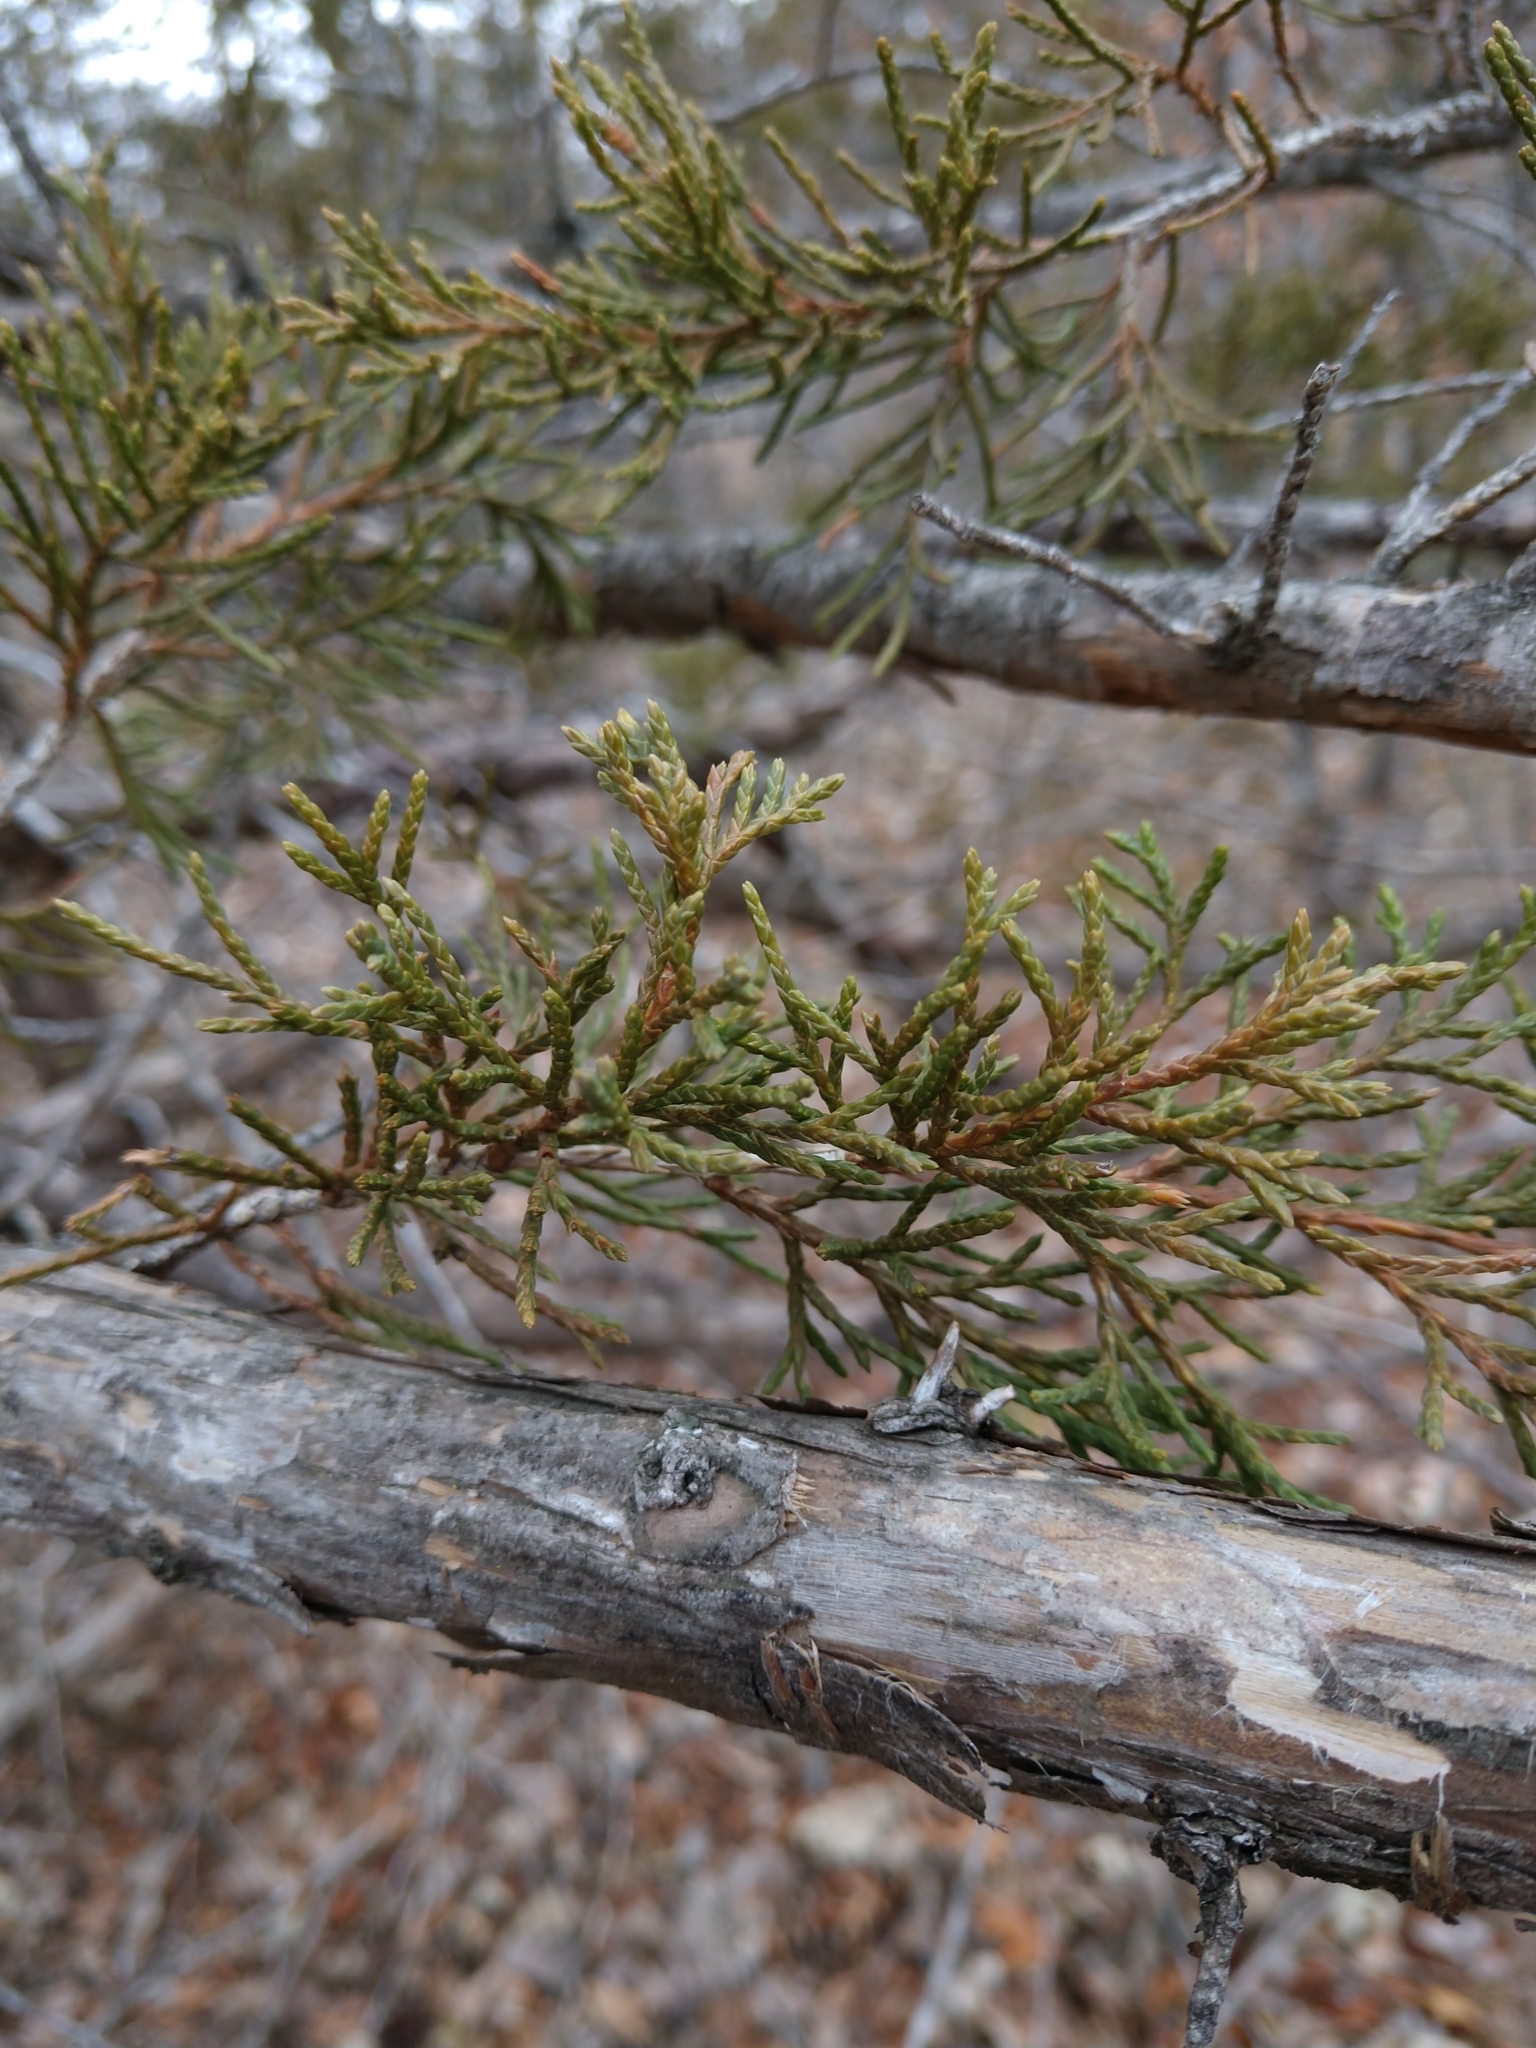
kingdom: Plantae
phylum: Tracheophyta
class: Pinopsida
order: Pinales
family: Cupressaceae
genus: Juniperus
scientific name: Juniperus virginiana
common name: Red juniper
